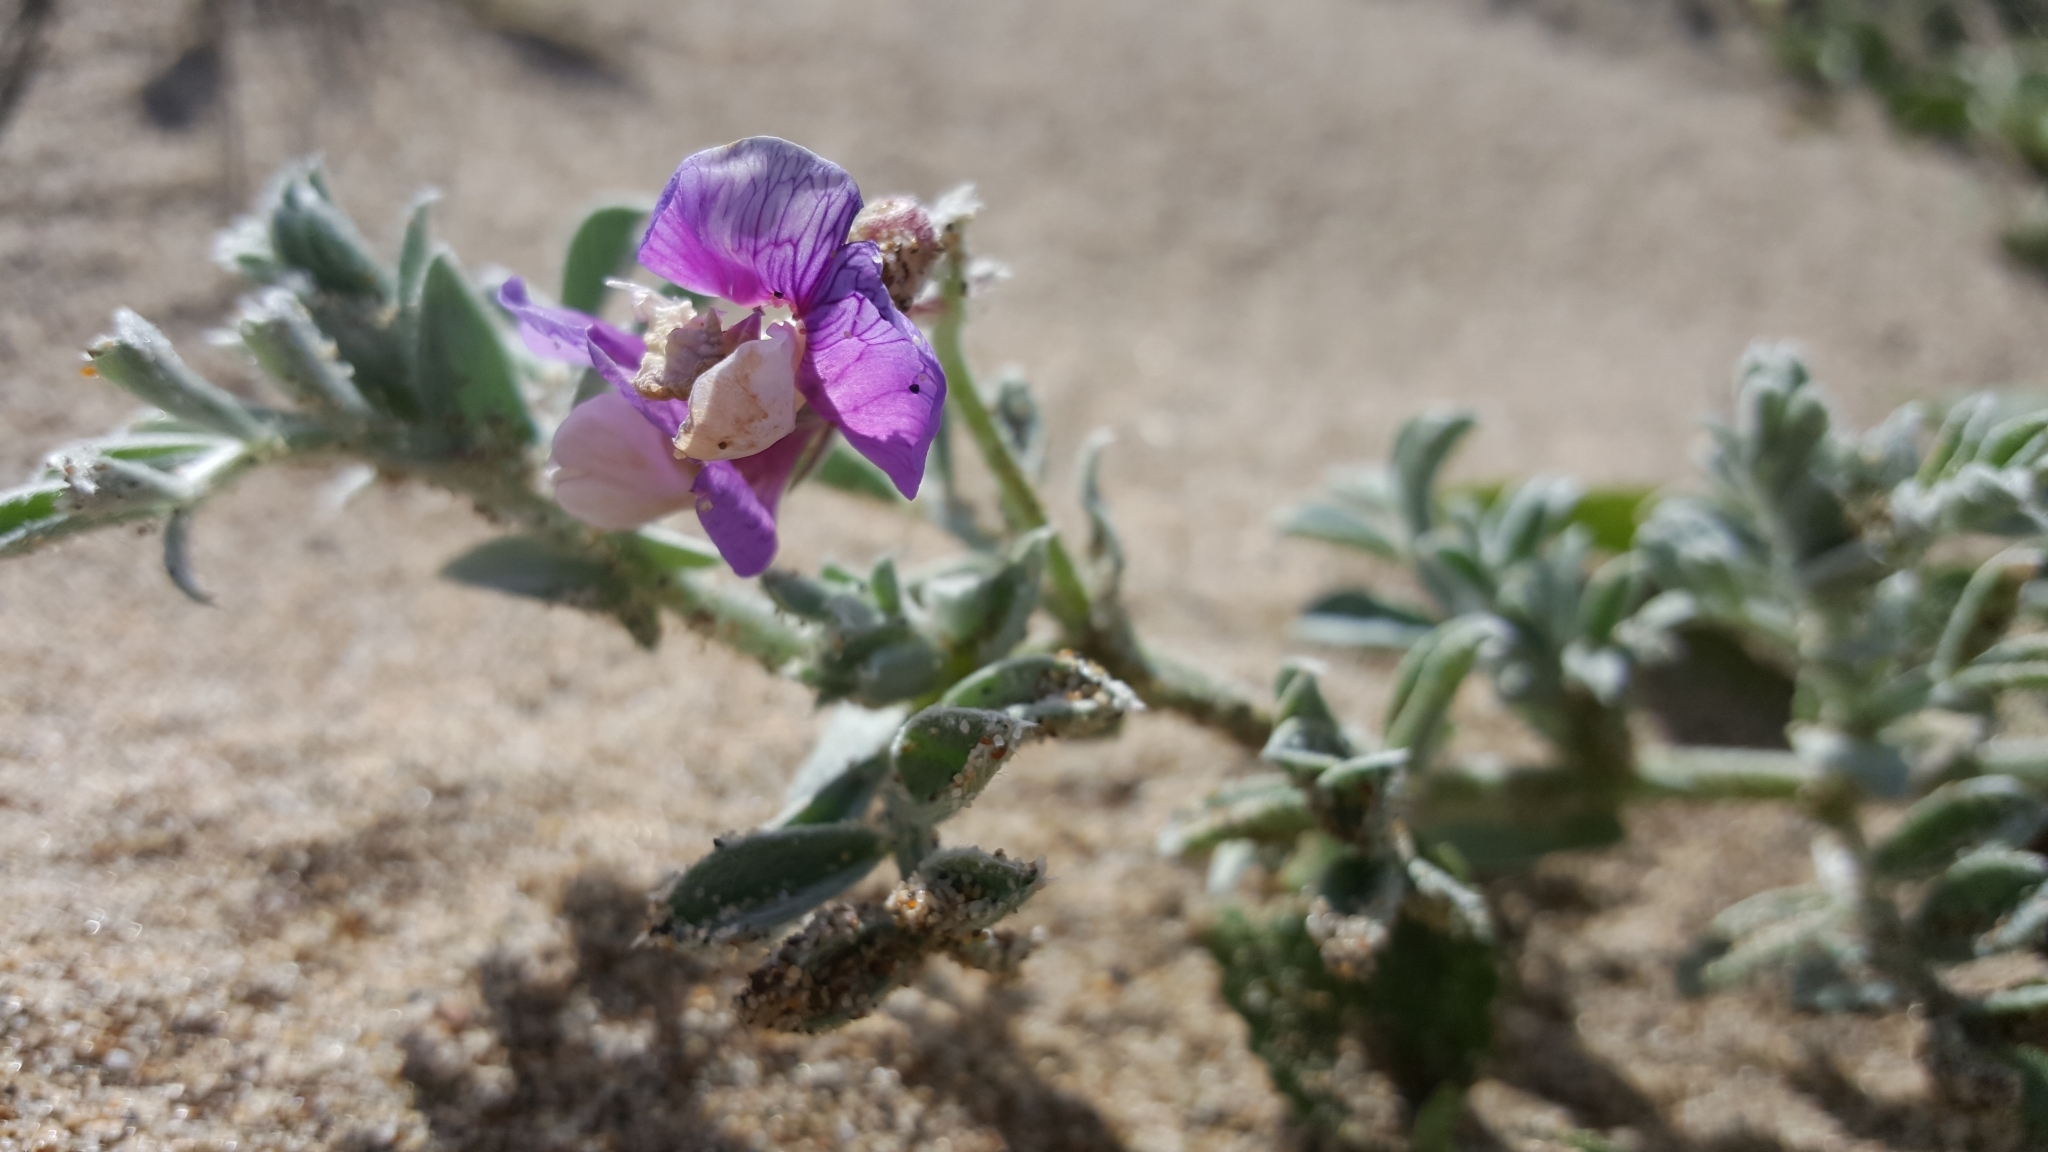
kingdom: Plantae
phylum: Tracheophyta
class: Magnoliopsida
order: Fabales
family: Fabaceae
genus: Lathyrus
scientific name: Lathyrus littoralis
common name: Dune sweet pea
